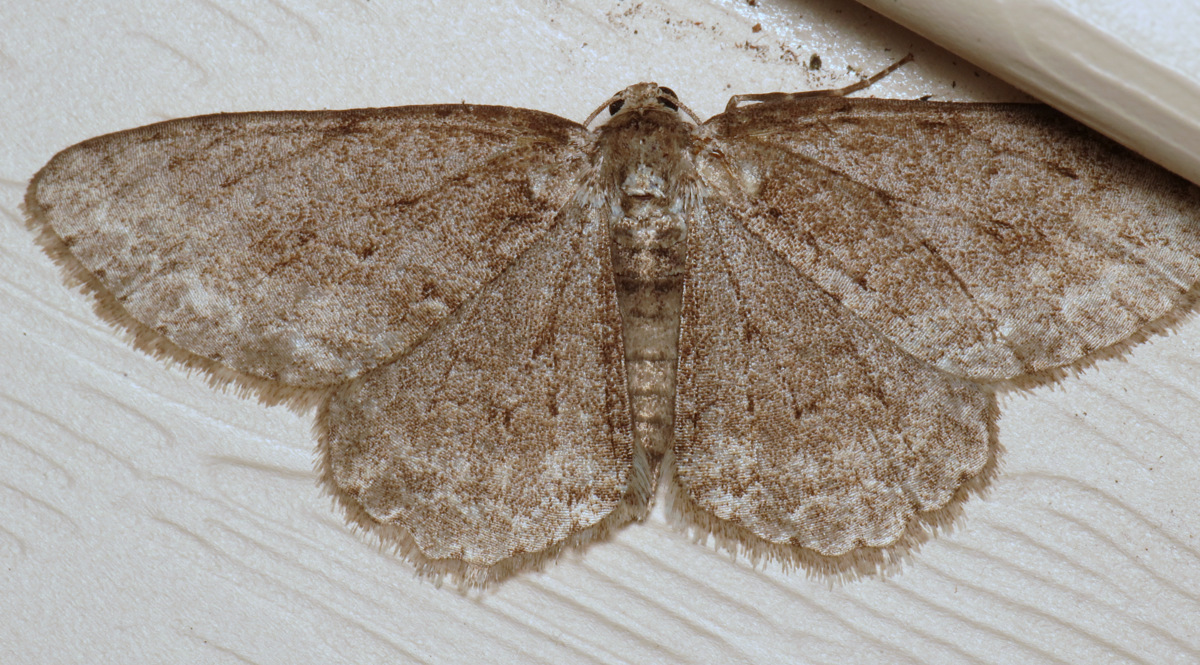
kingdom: Animalia
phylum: Arthropoda
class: Insecta
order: Lepidoptera
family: Geometridae
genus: Ectropis
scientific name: Ectropis crepuscularia
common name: Engrailed
